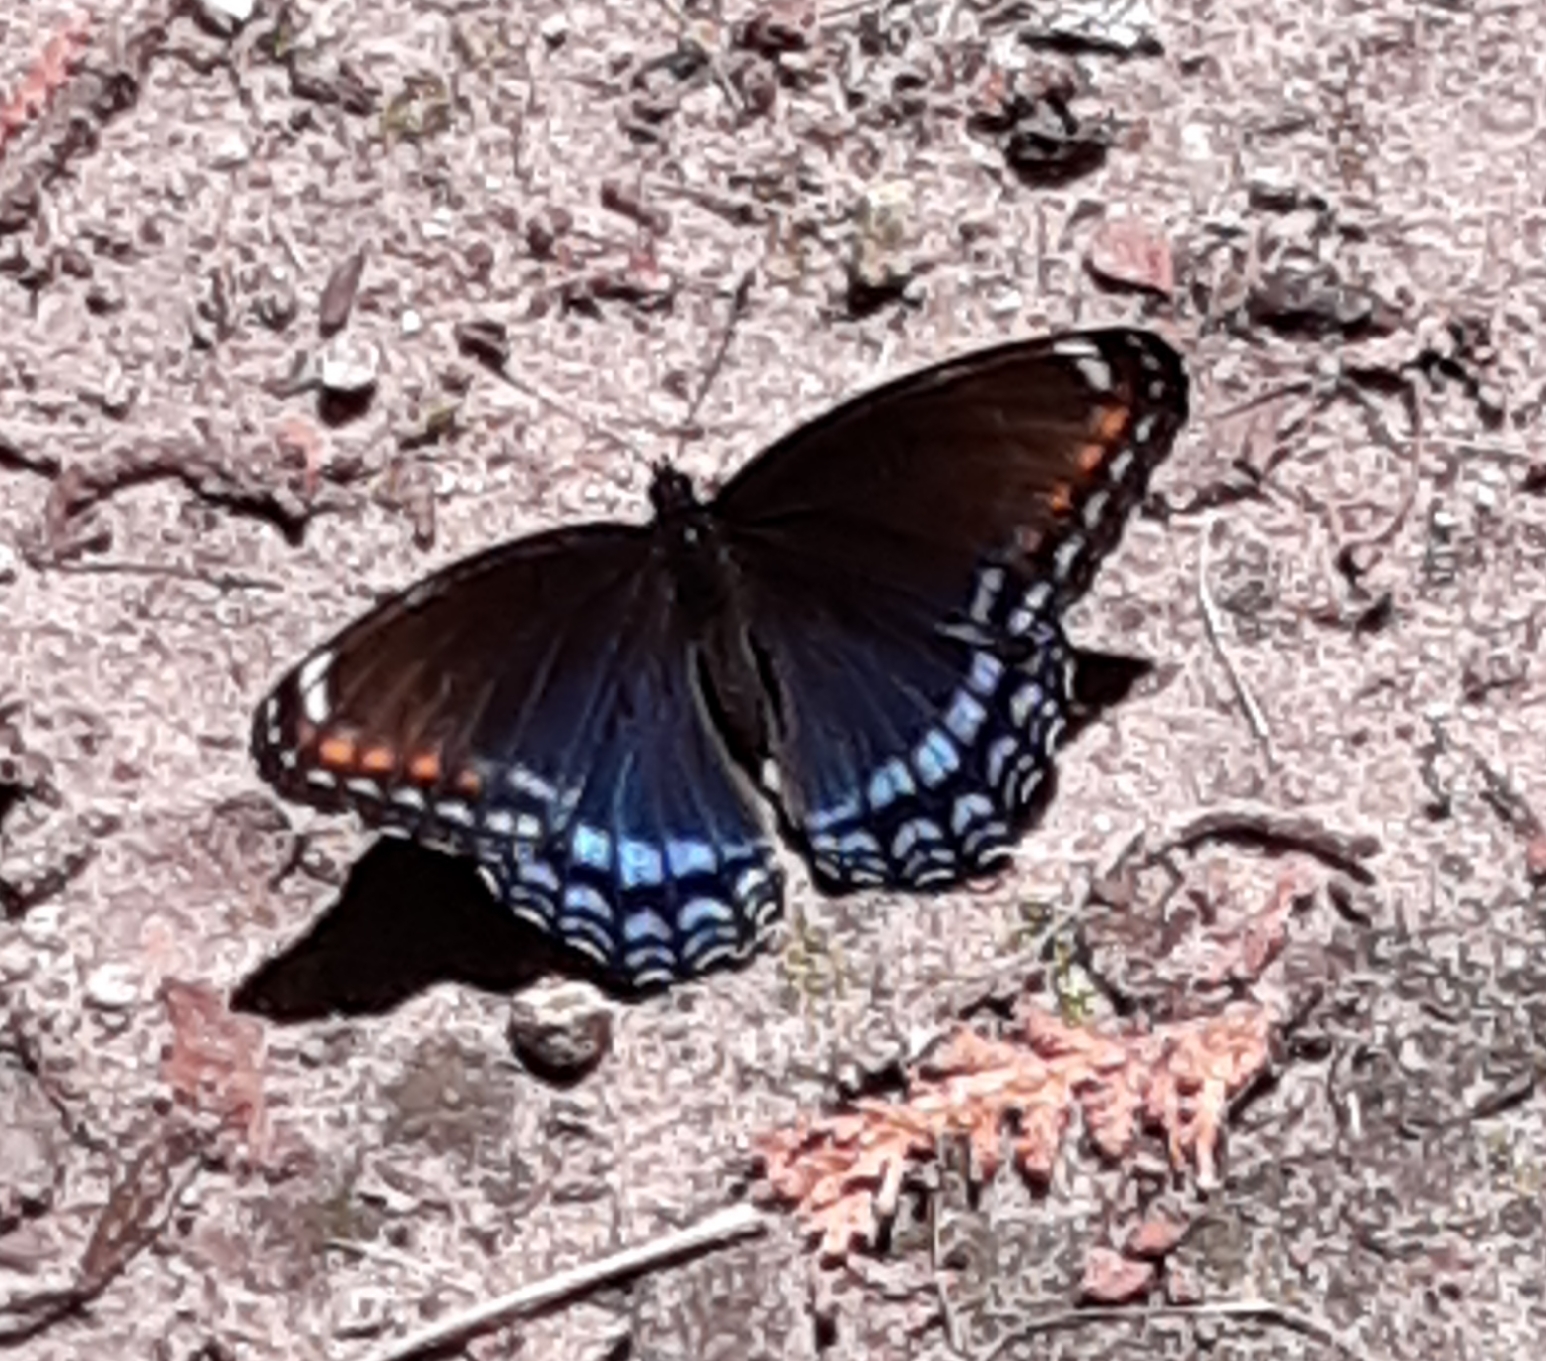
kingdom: Animalia
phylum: Arthropoda
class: Insecta
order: Lepidoptera
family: Nymphalidae
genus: Limenitis
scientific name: Limenitis arthemis
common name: Red-spotted admiral
